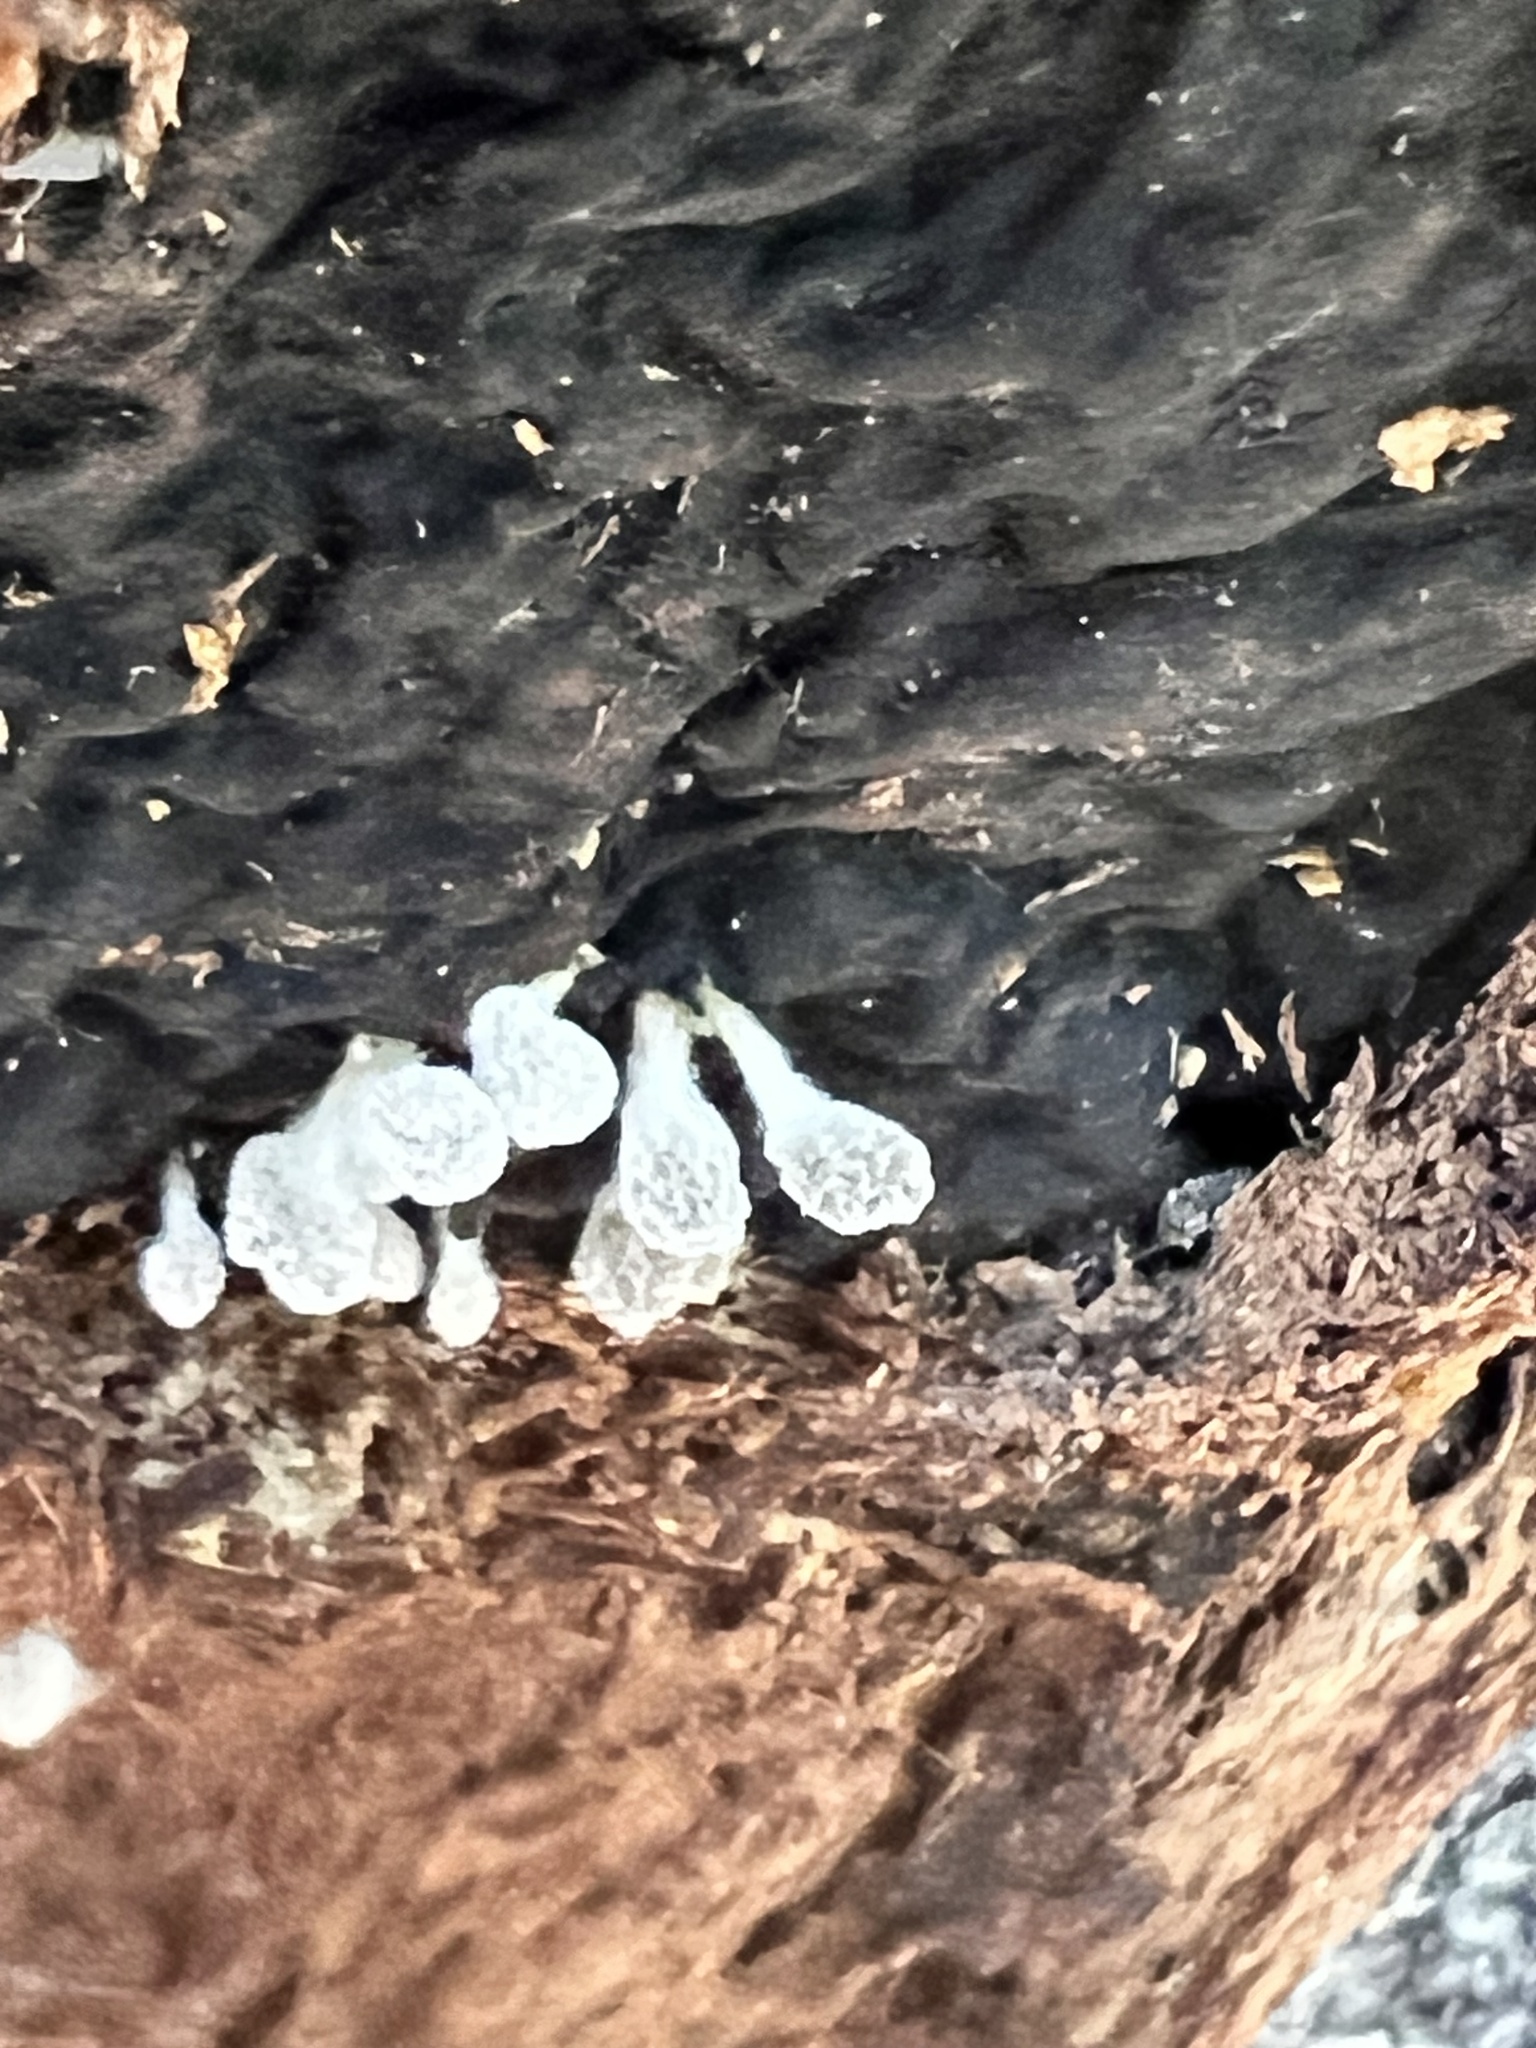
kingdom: Fungi
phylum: Basidiomycota
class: Atractiellomycetes
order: Atractiellales
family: Phleogenaceae
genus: Phleogena
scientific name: Phleogena faginea
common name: Fenugreek stalkball
